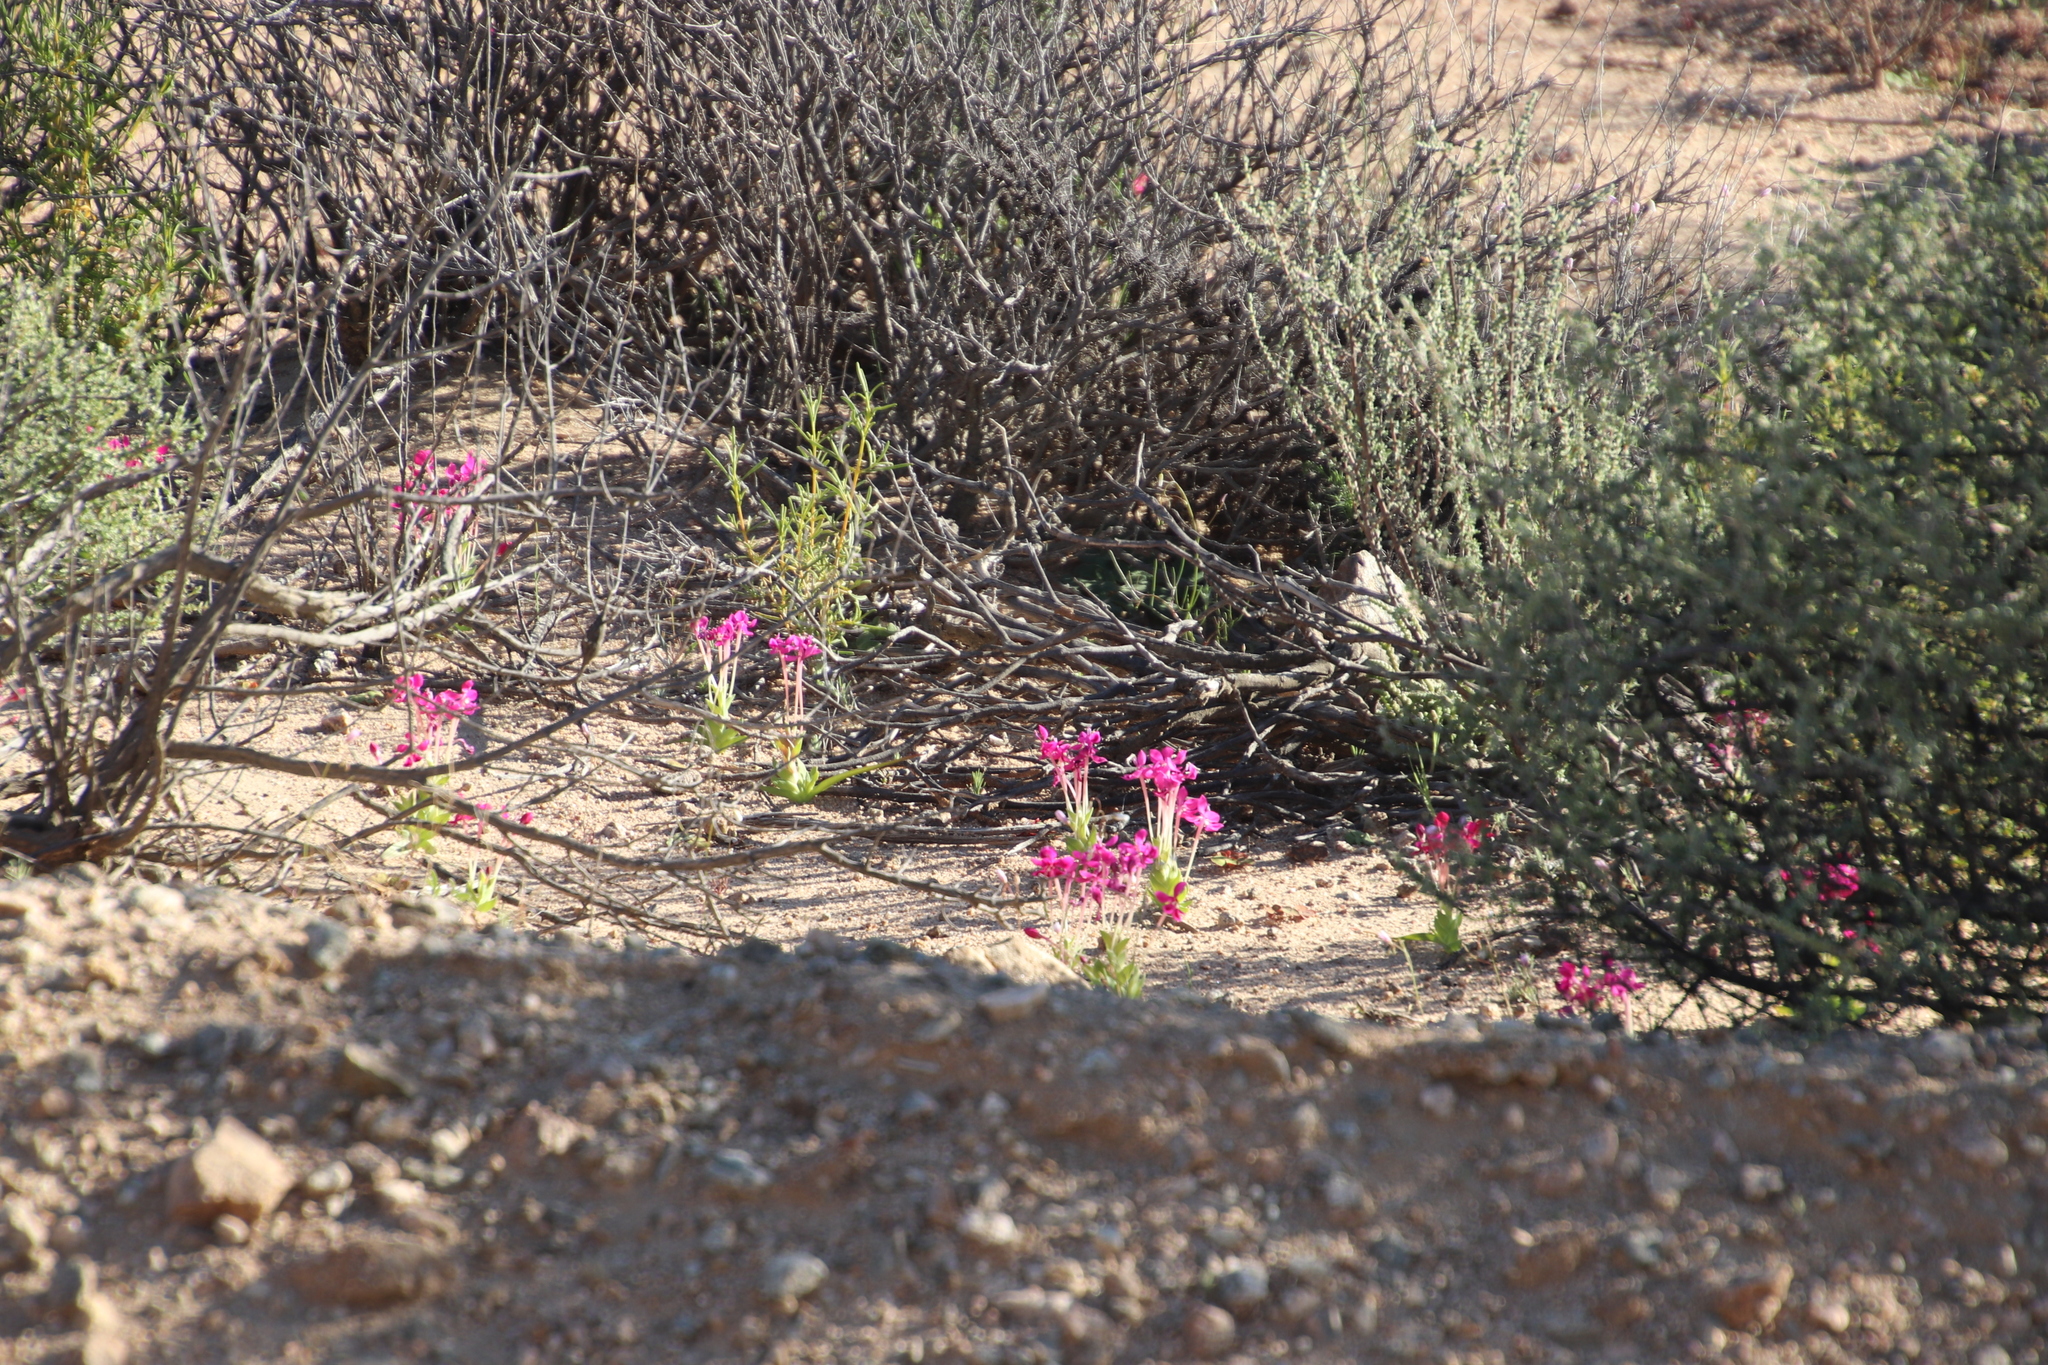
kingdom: Plantae
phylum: Tracheophyta
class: Liliopsida
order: Asparagales
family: Iridaceae
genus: Lapeirousia
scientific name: Lapeirousia silenoides
